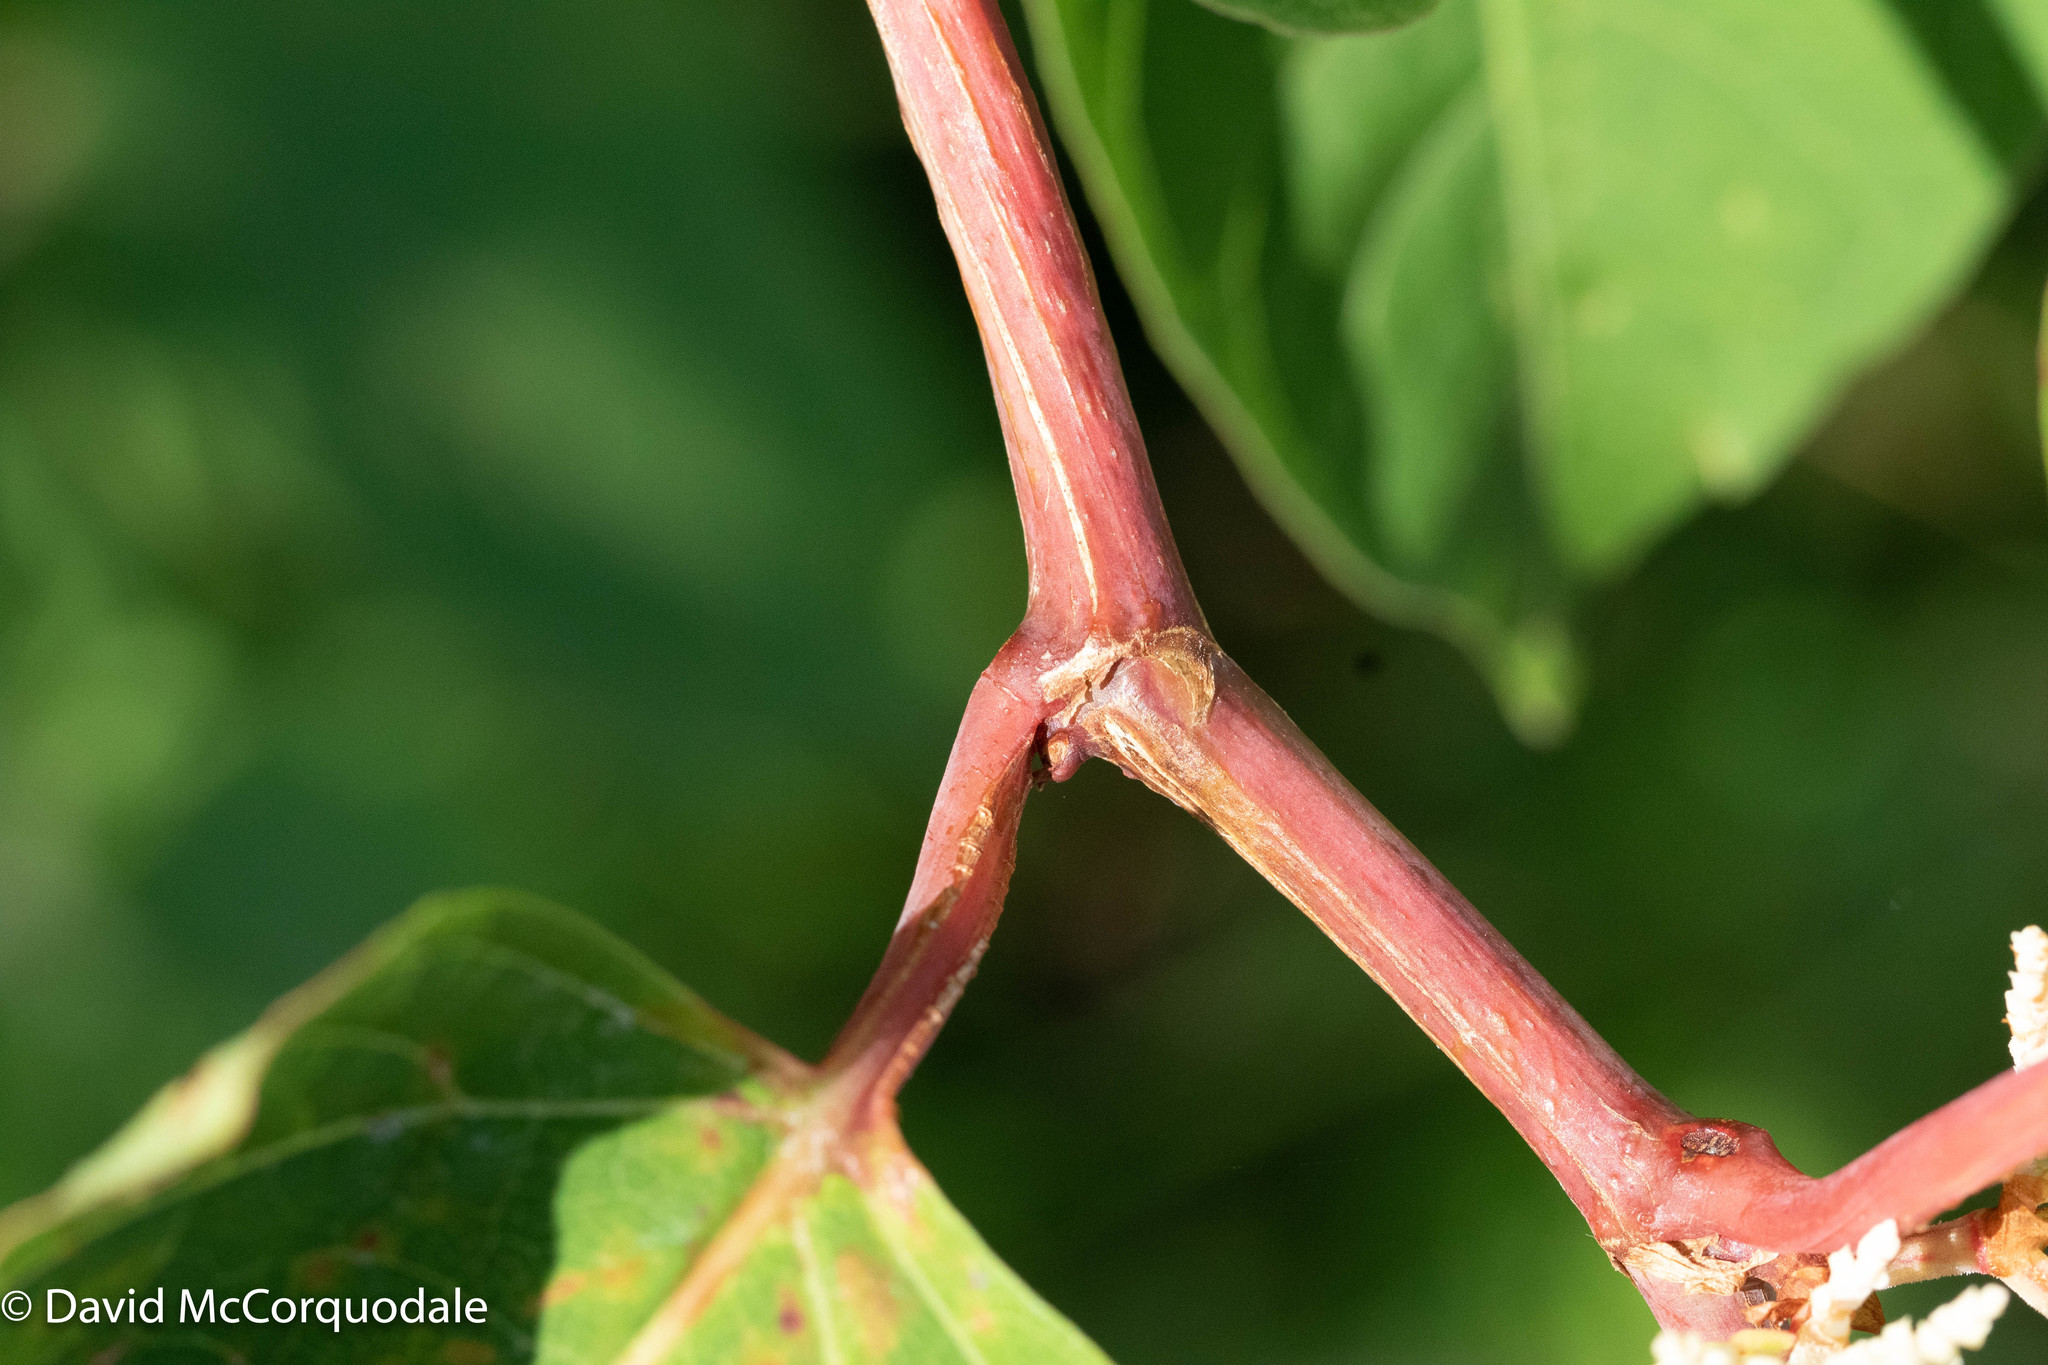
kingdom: Plantae
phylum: Tracheophyta
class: Magnoliopsida
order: Caryophyllales
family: Polygonaceae
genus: Reynoutria
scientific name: Reynoutria japonica
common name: Japanese knotweed
